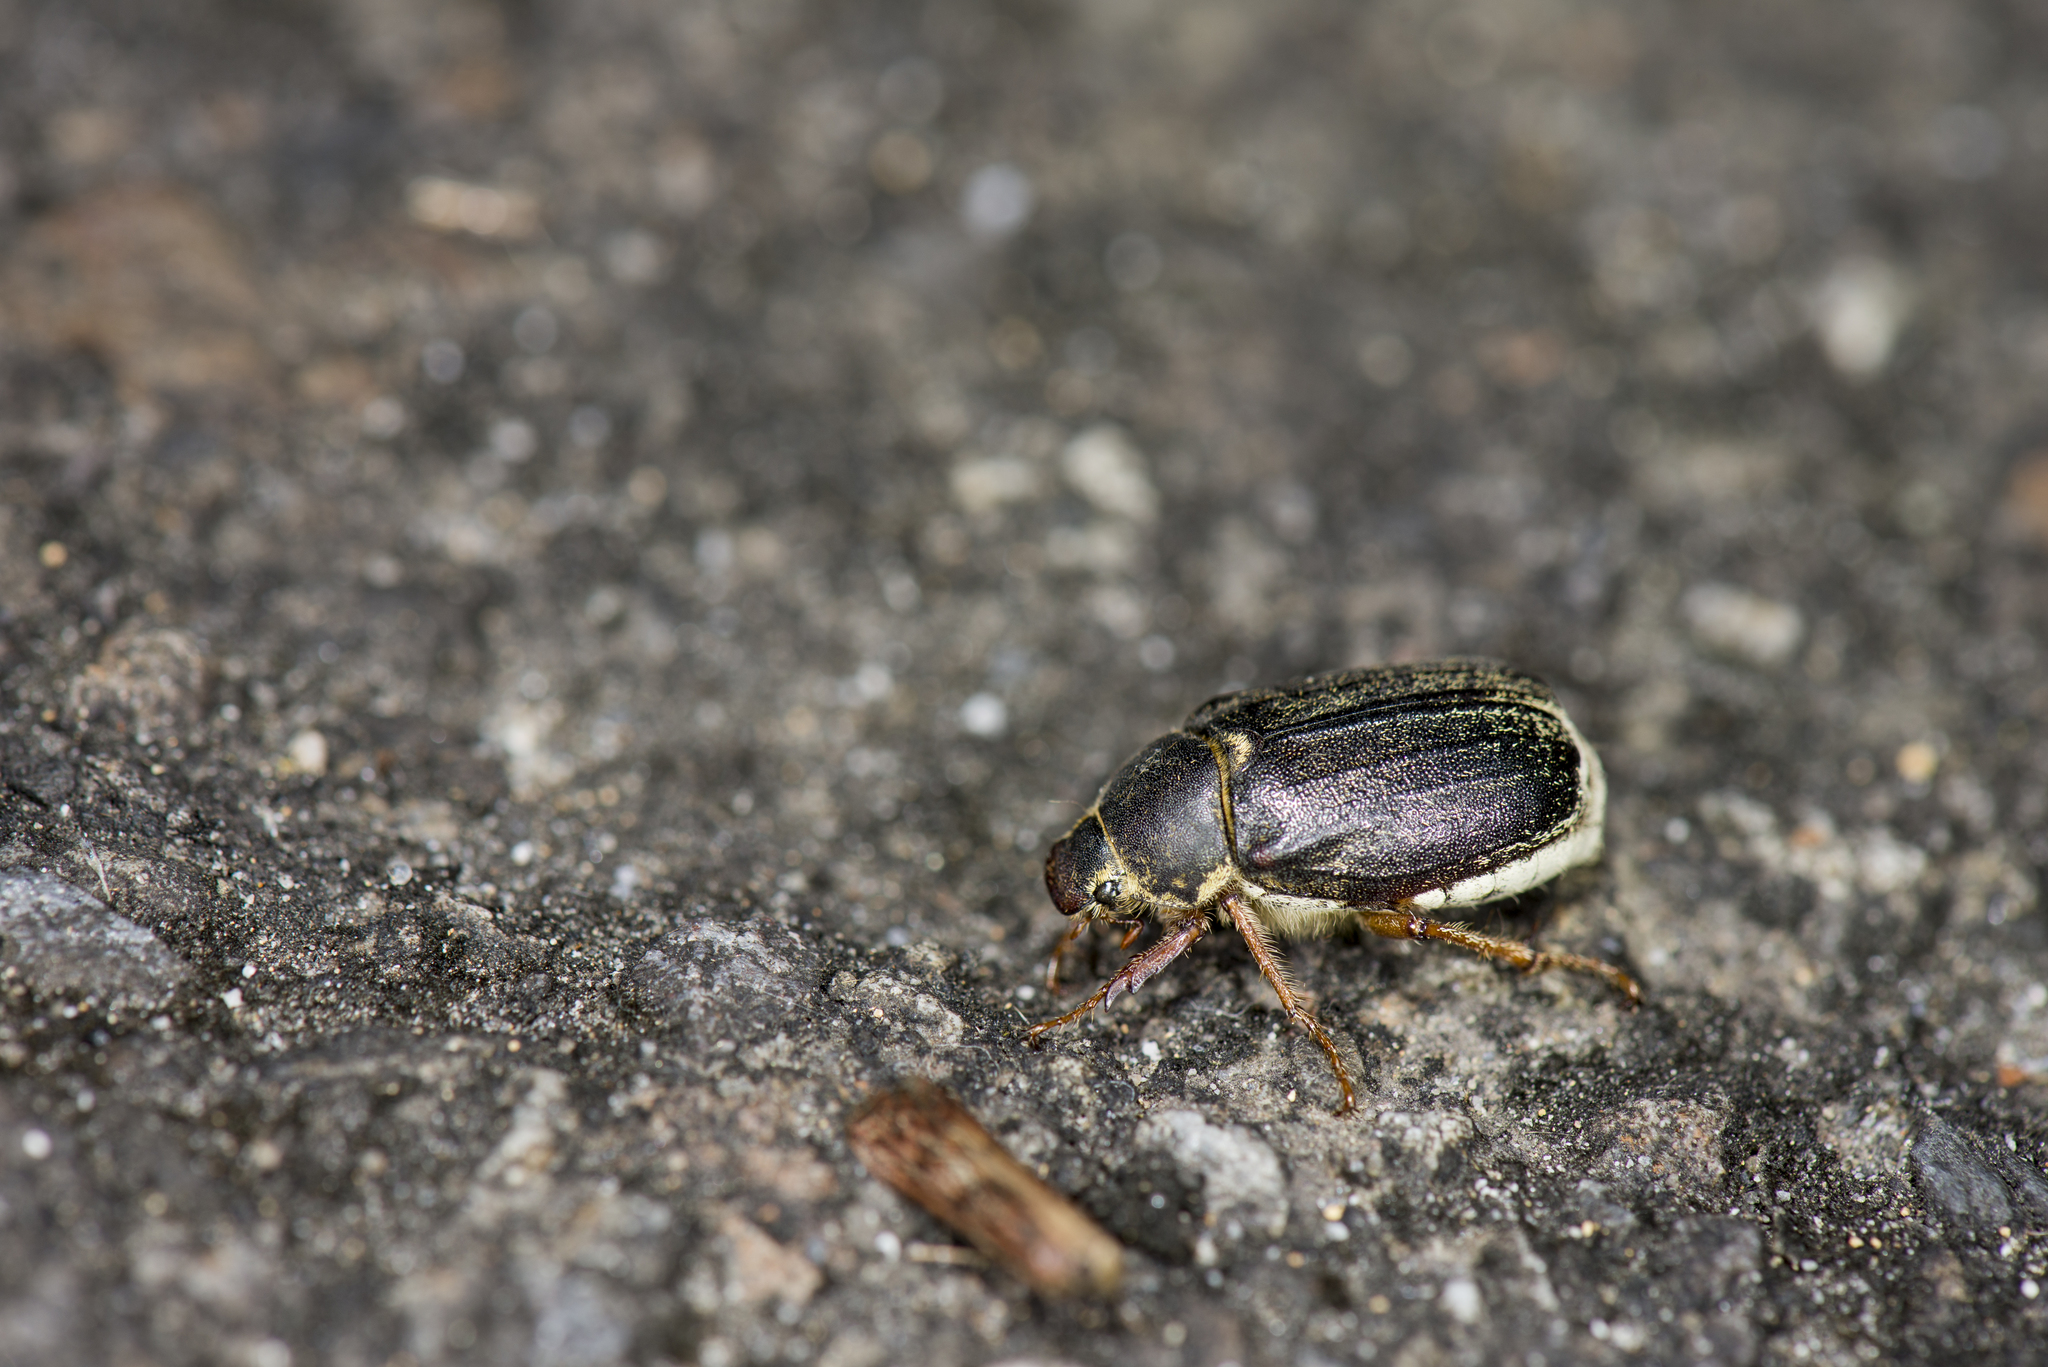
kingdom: Animalia
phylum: Arthropoda
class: Insecta
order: Coleoptera
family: Scarabaeidae
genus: Dasylepida
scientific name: Dasylepida nana
